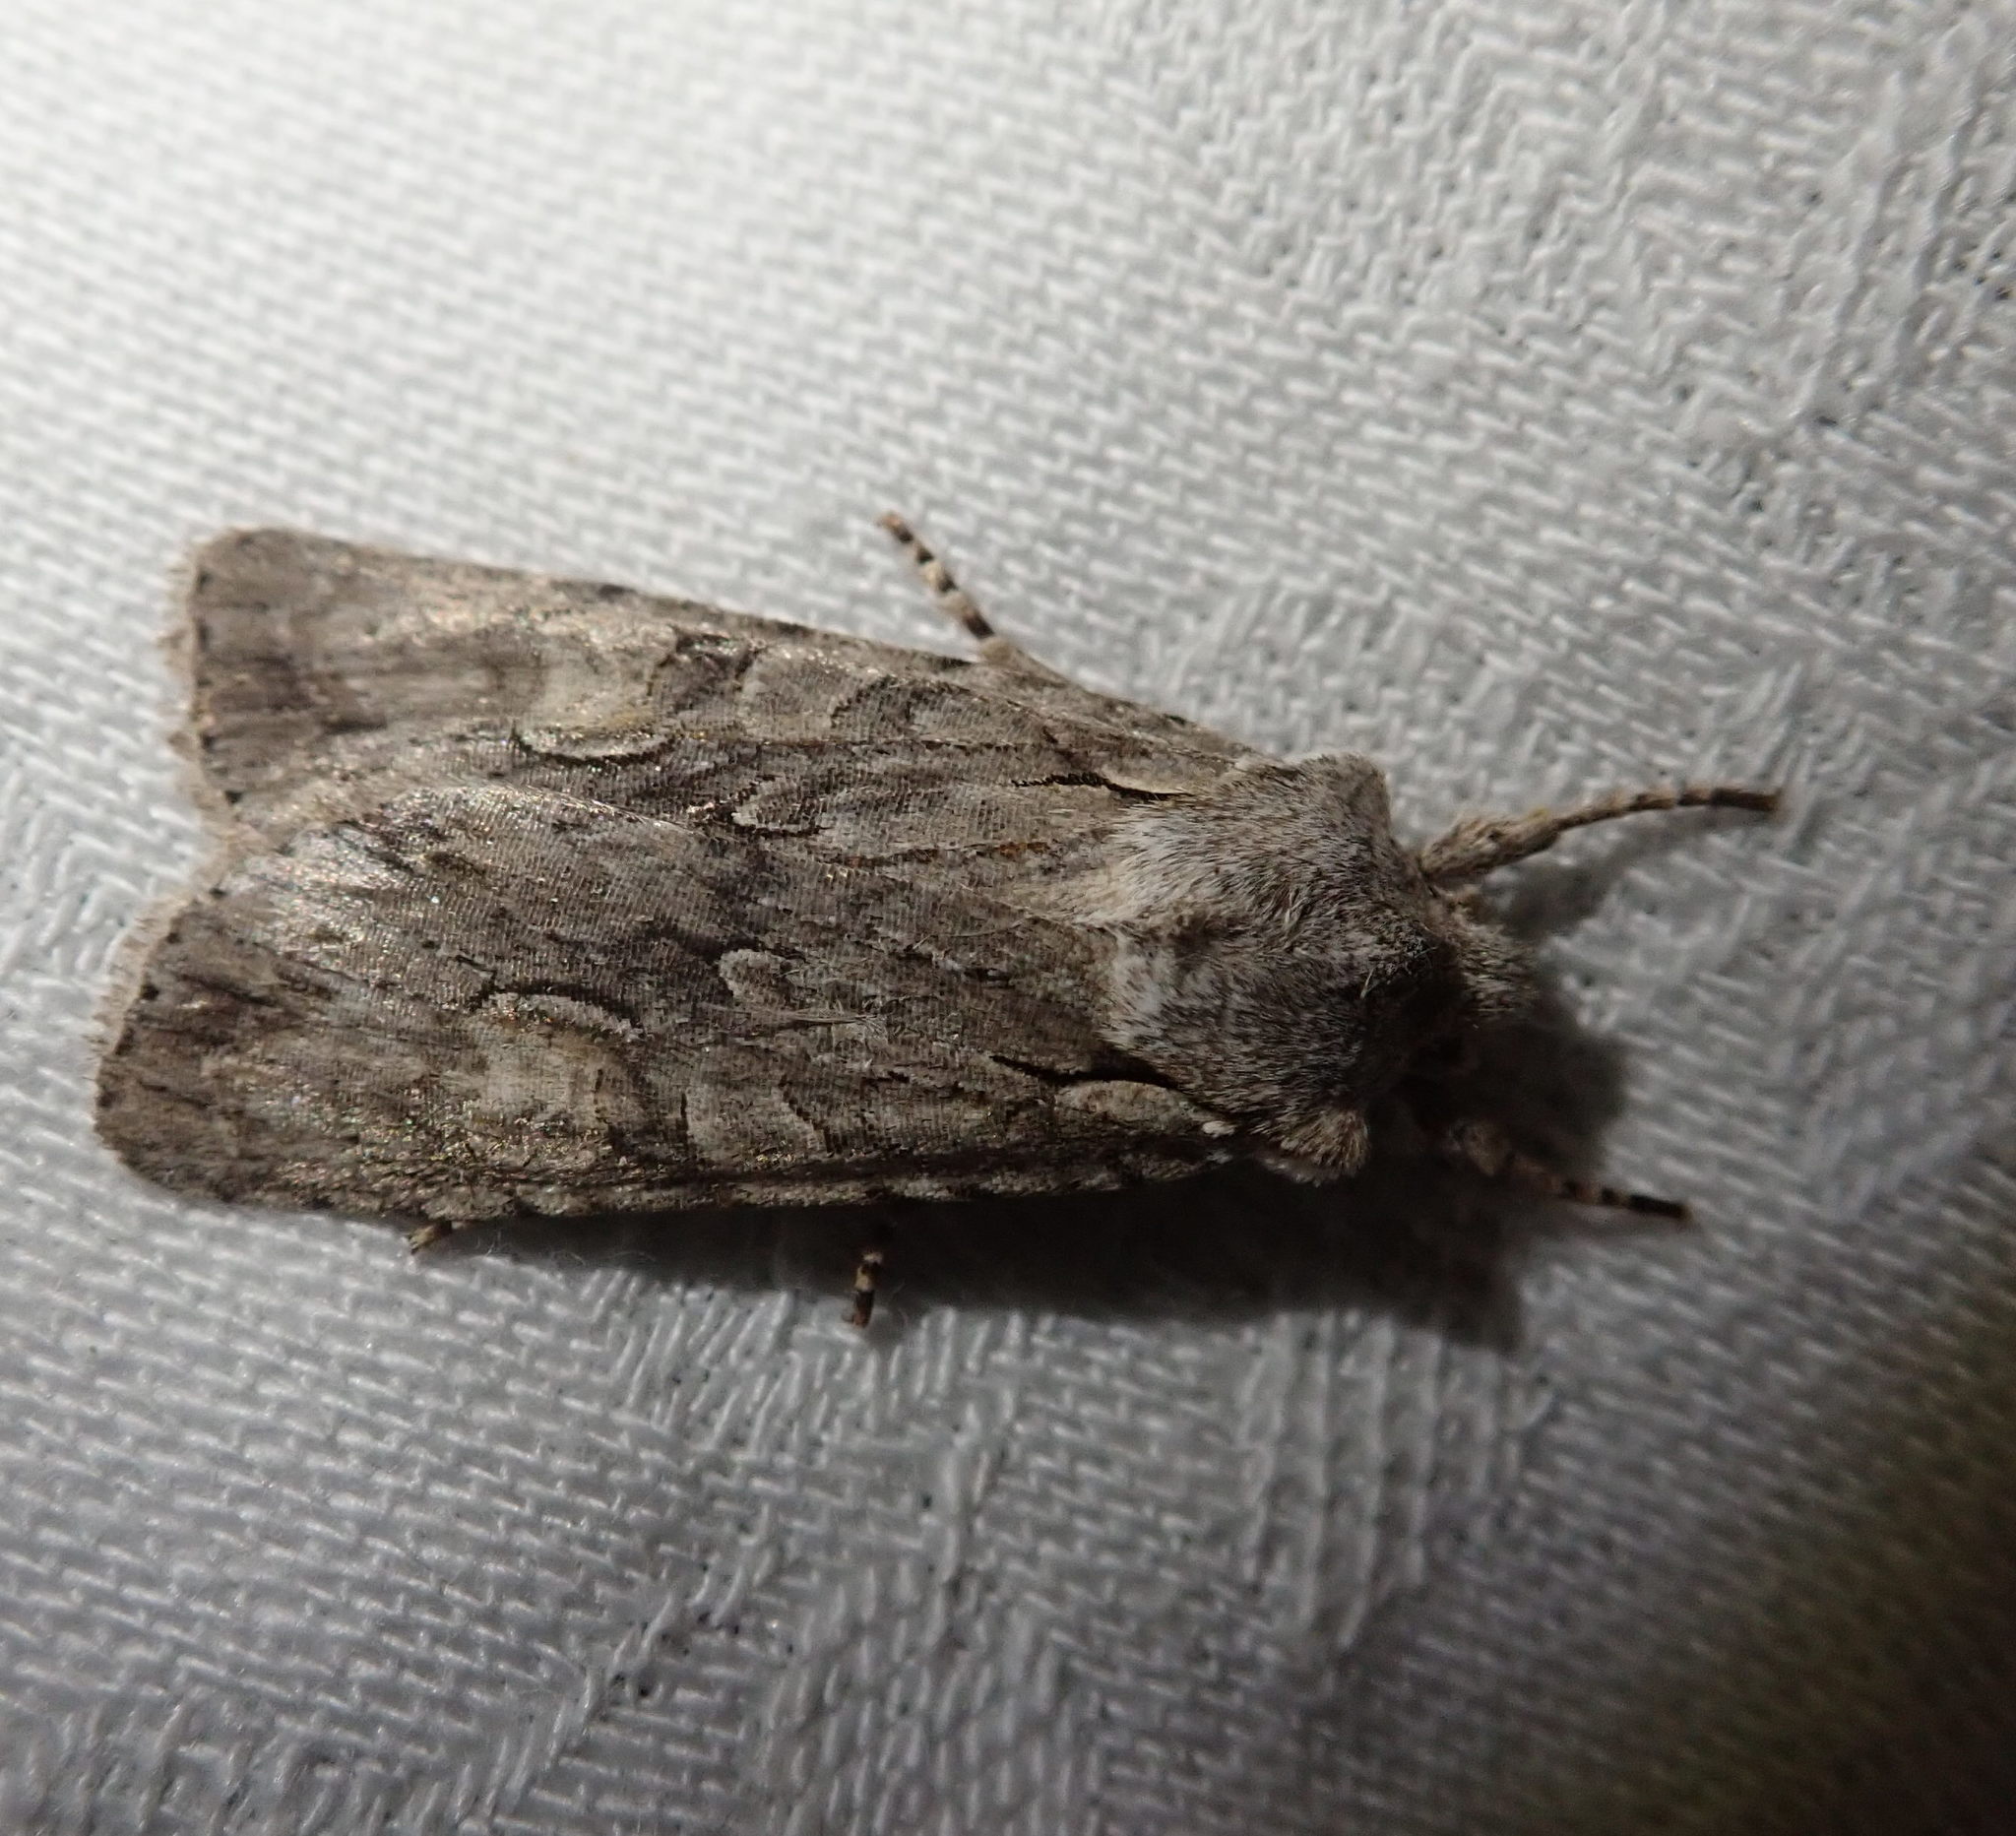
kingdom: Animalia
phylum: Arthropoda
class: Insecta
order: Lepidoptera
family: Noctuidae
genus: Lithophane
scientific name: Lithophane ornitopus
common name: Grey shoulder-knot
